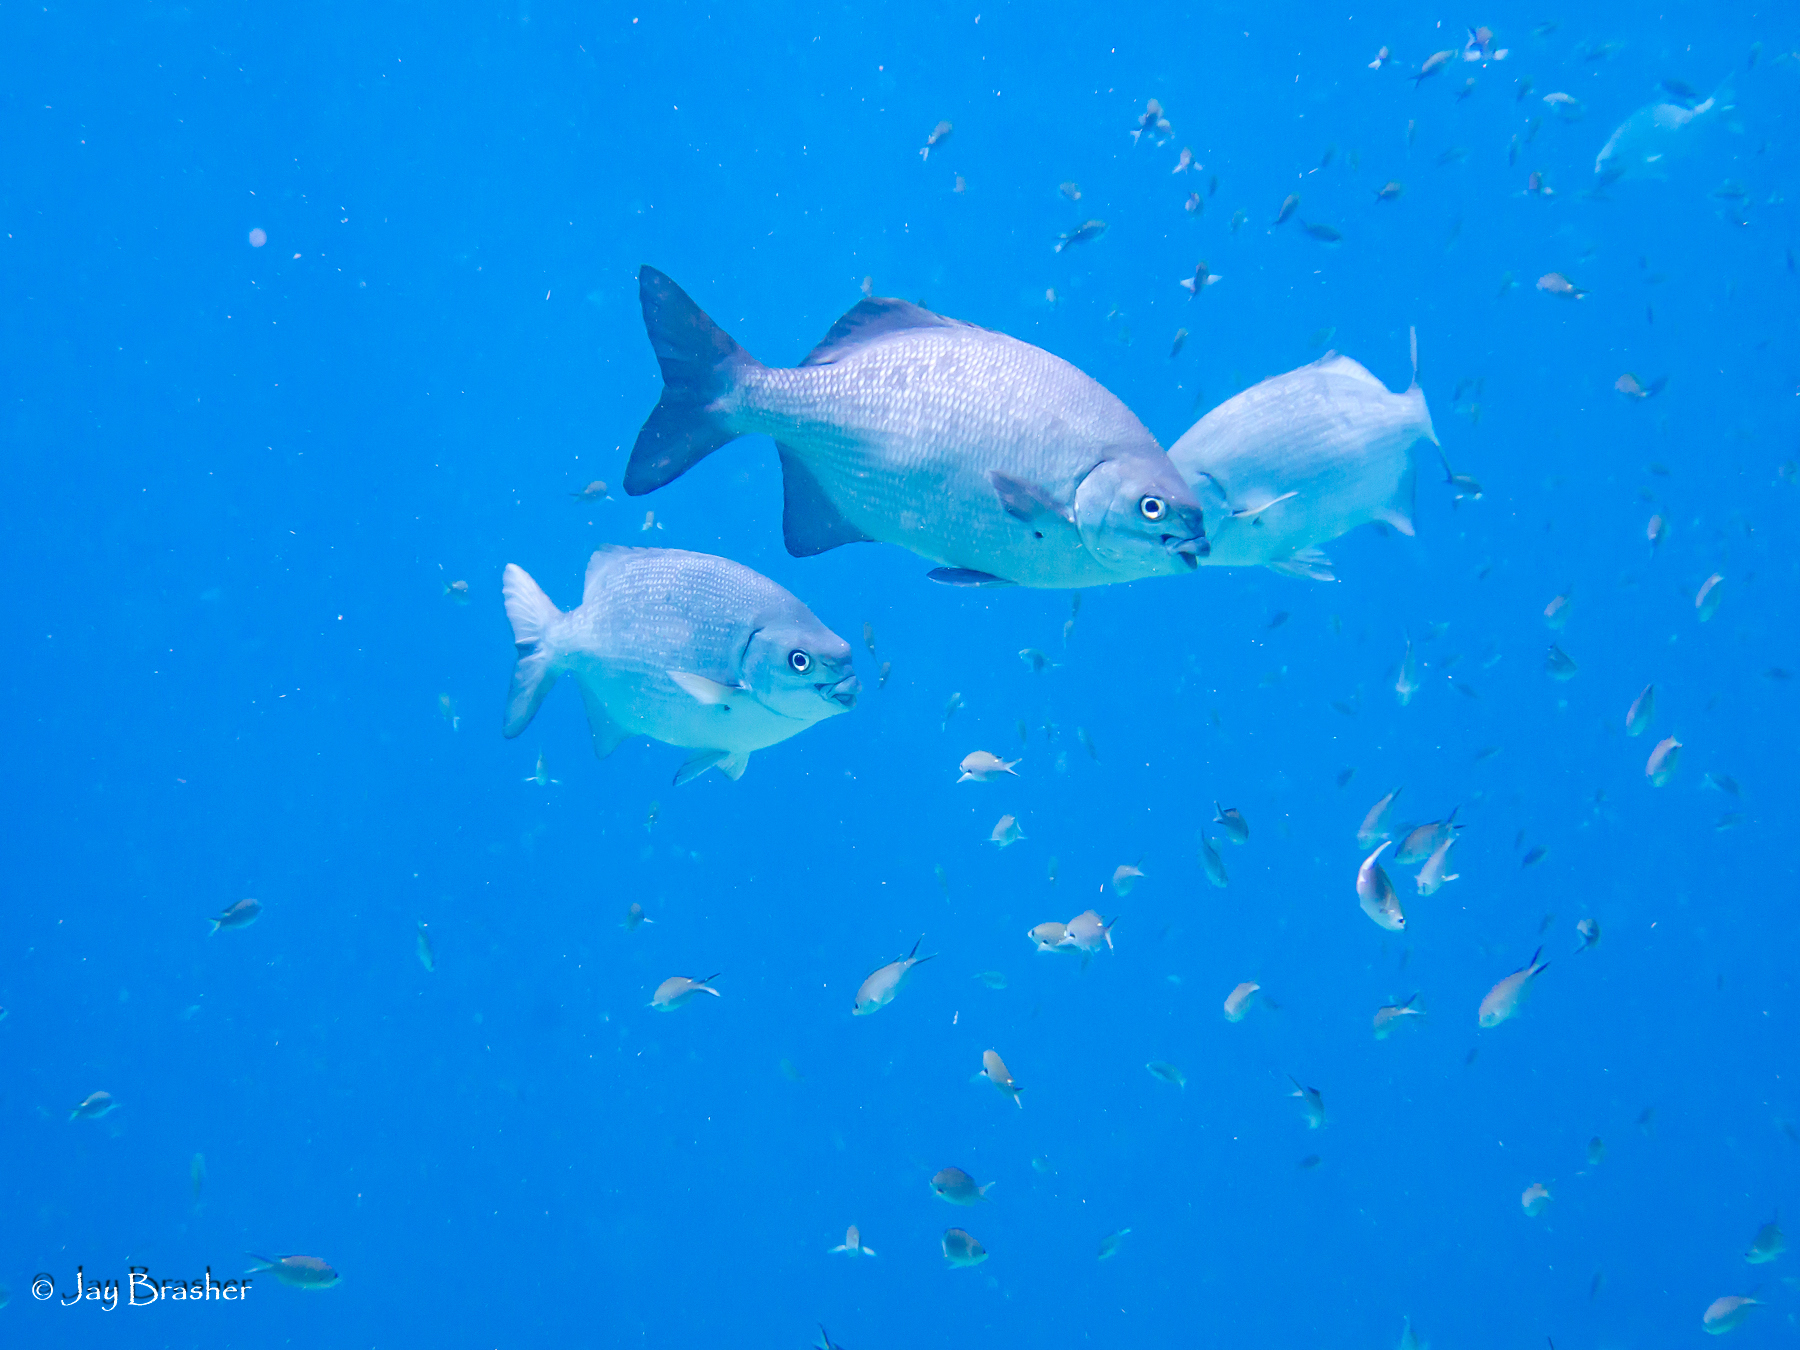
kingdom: Animalia
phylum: Chordata
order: Perciformes
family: Kyphosidae
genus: Kyphosus
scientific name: Kyphosus sectatrix
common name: Bermuda chub
